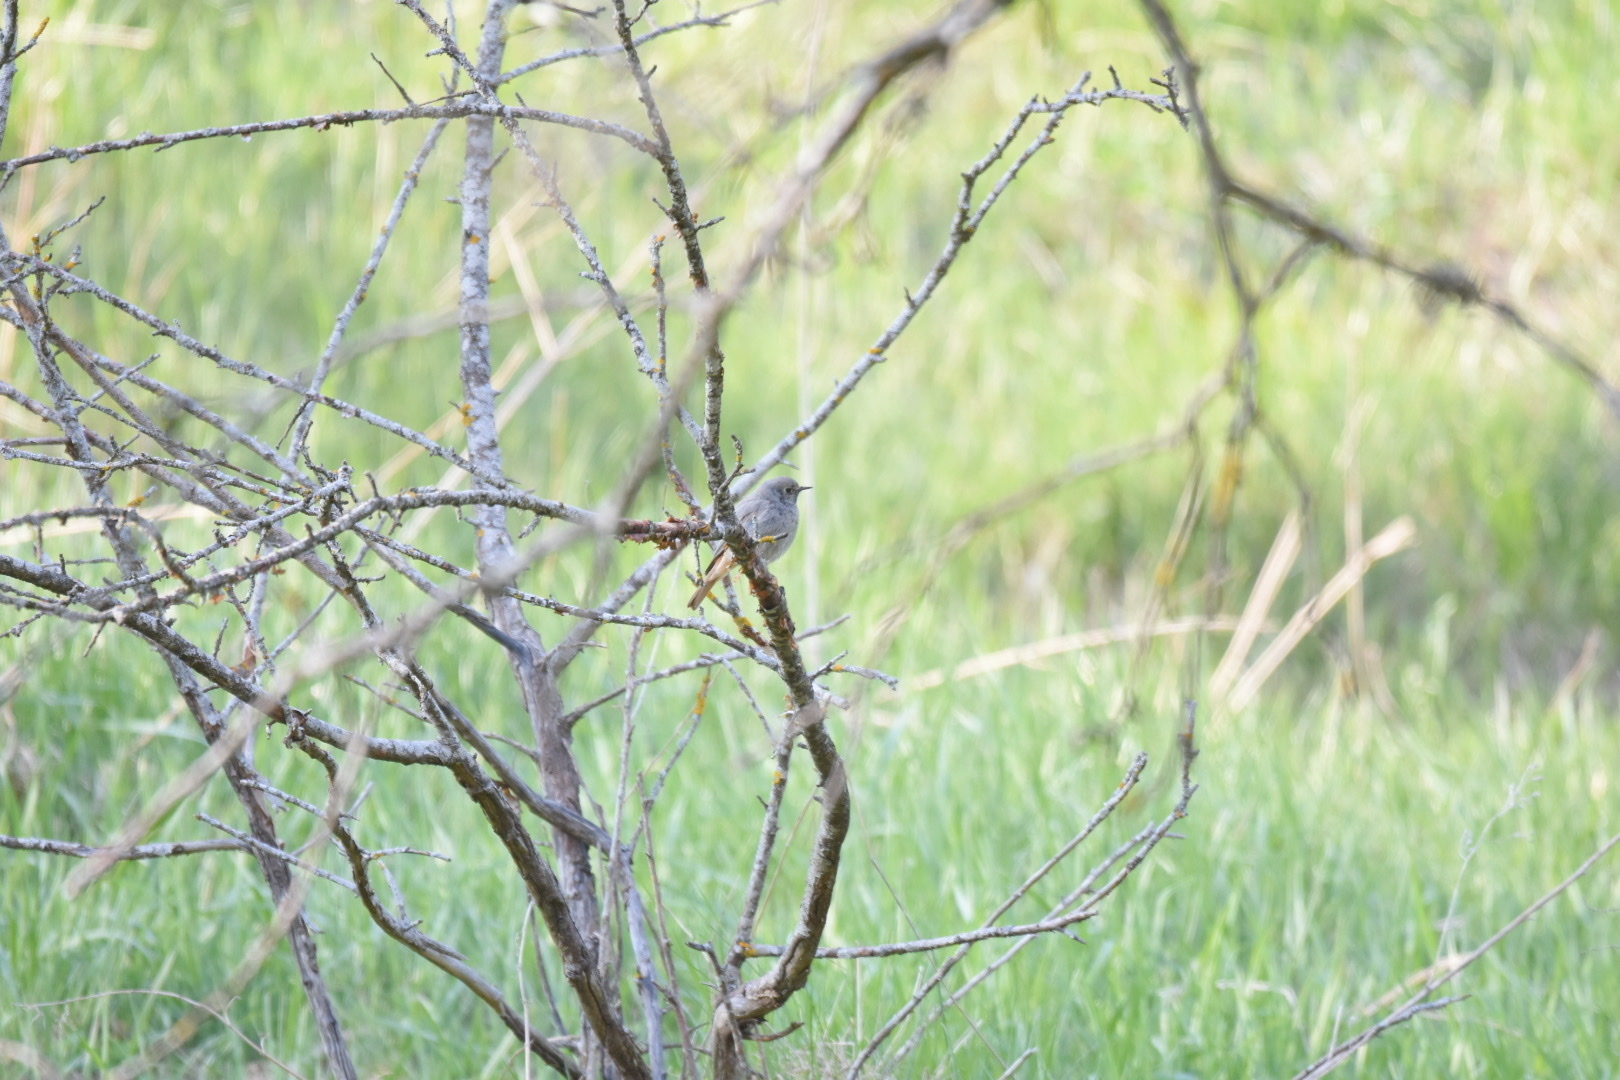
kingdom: Animalia
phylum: Chordata
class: Aves
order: Passeriformes
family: Muscicapidae
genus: Phoenicurus
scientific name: Phoenicurus ochruros
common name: Black redstart
